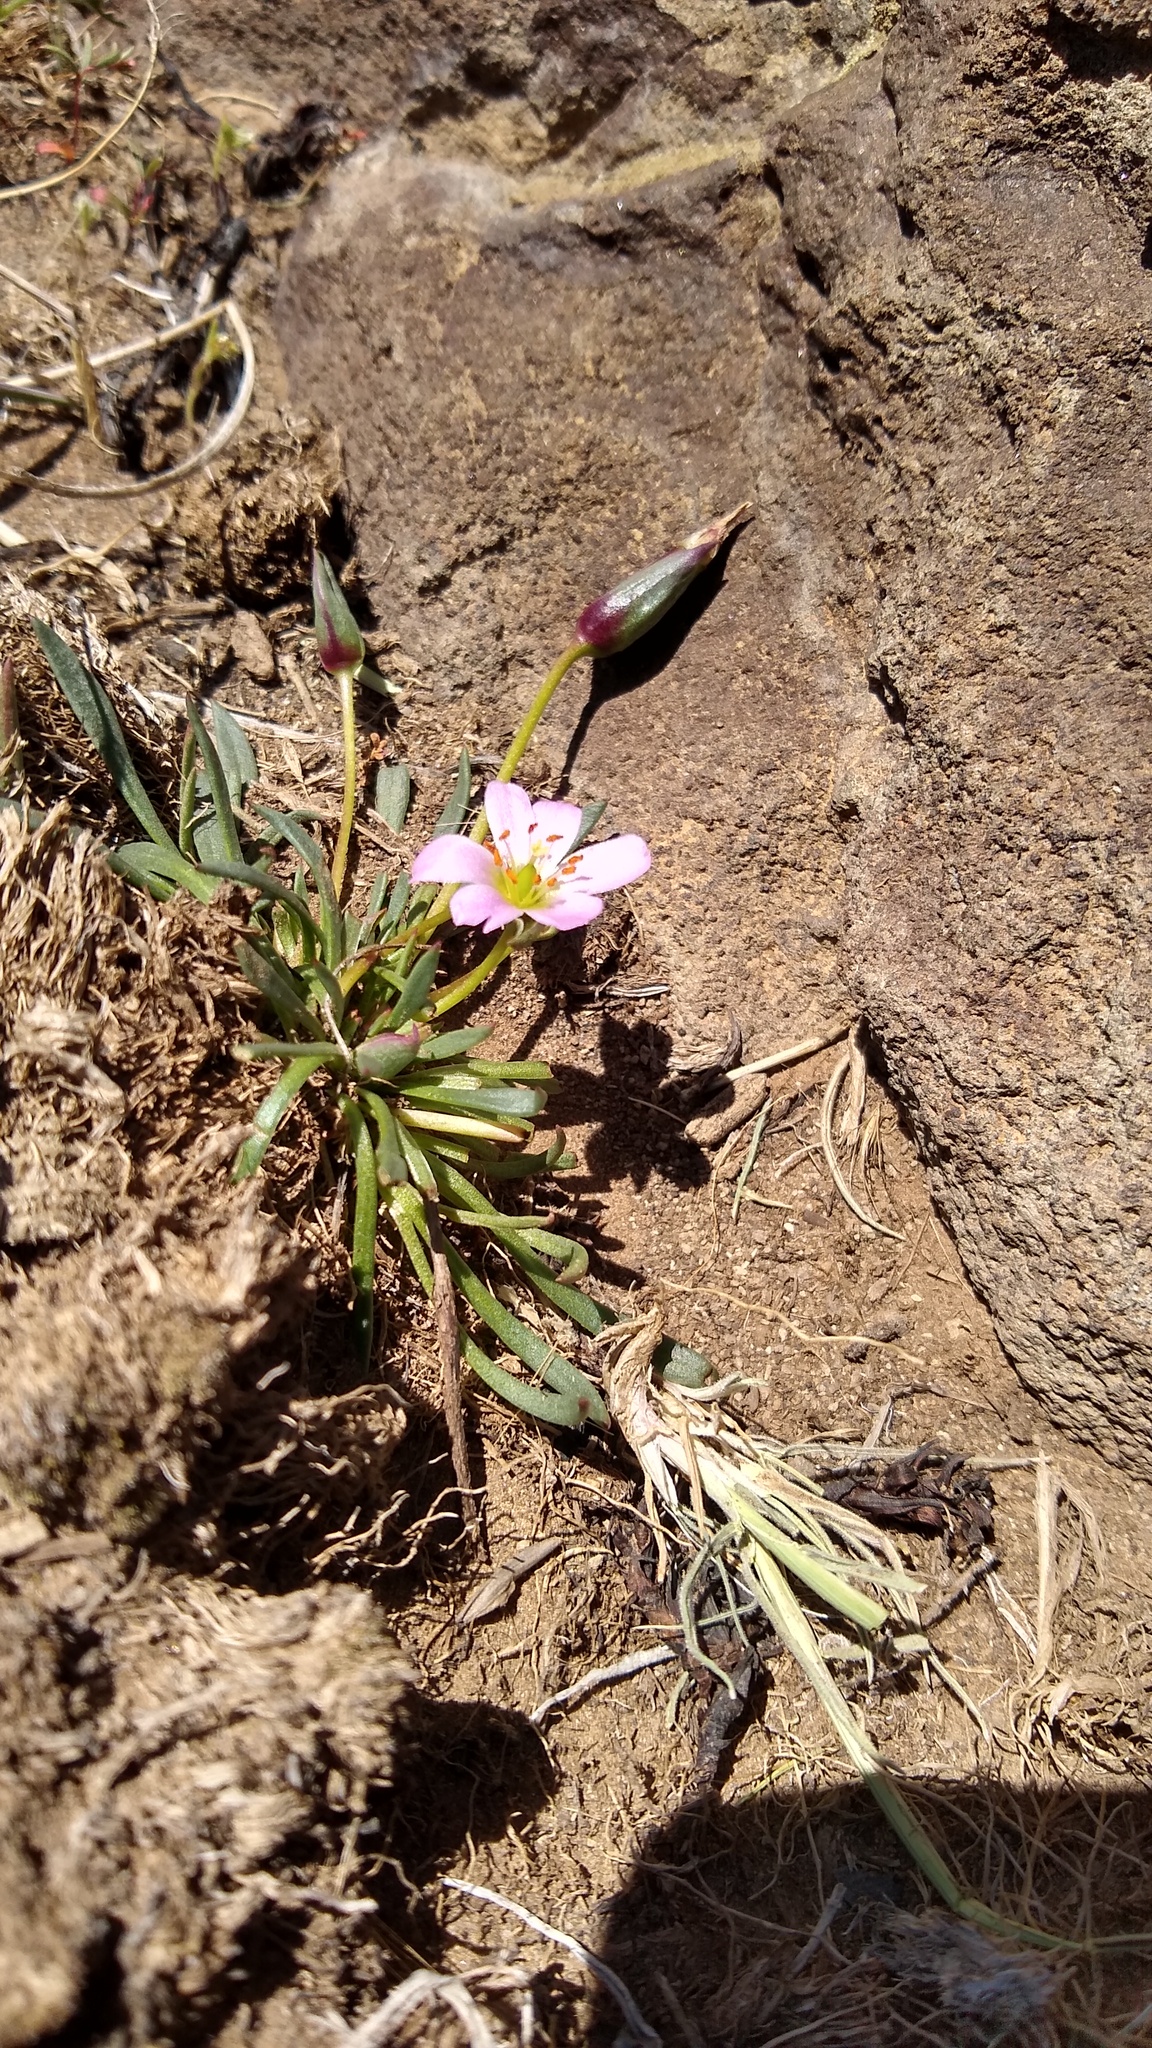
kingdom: Plantae
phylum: Tracheophyta
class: Magnoliopsida
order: Caryophyllales
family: Montiaceae
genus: Calandrinia
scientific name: Calandrinia caespitosa
